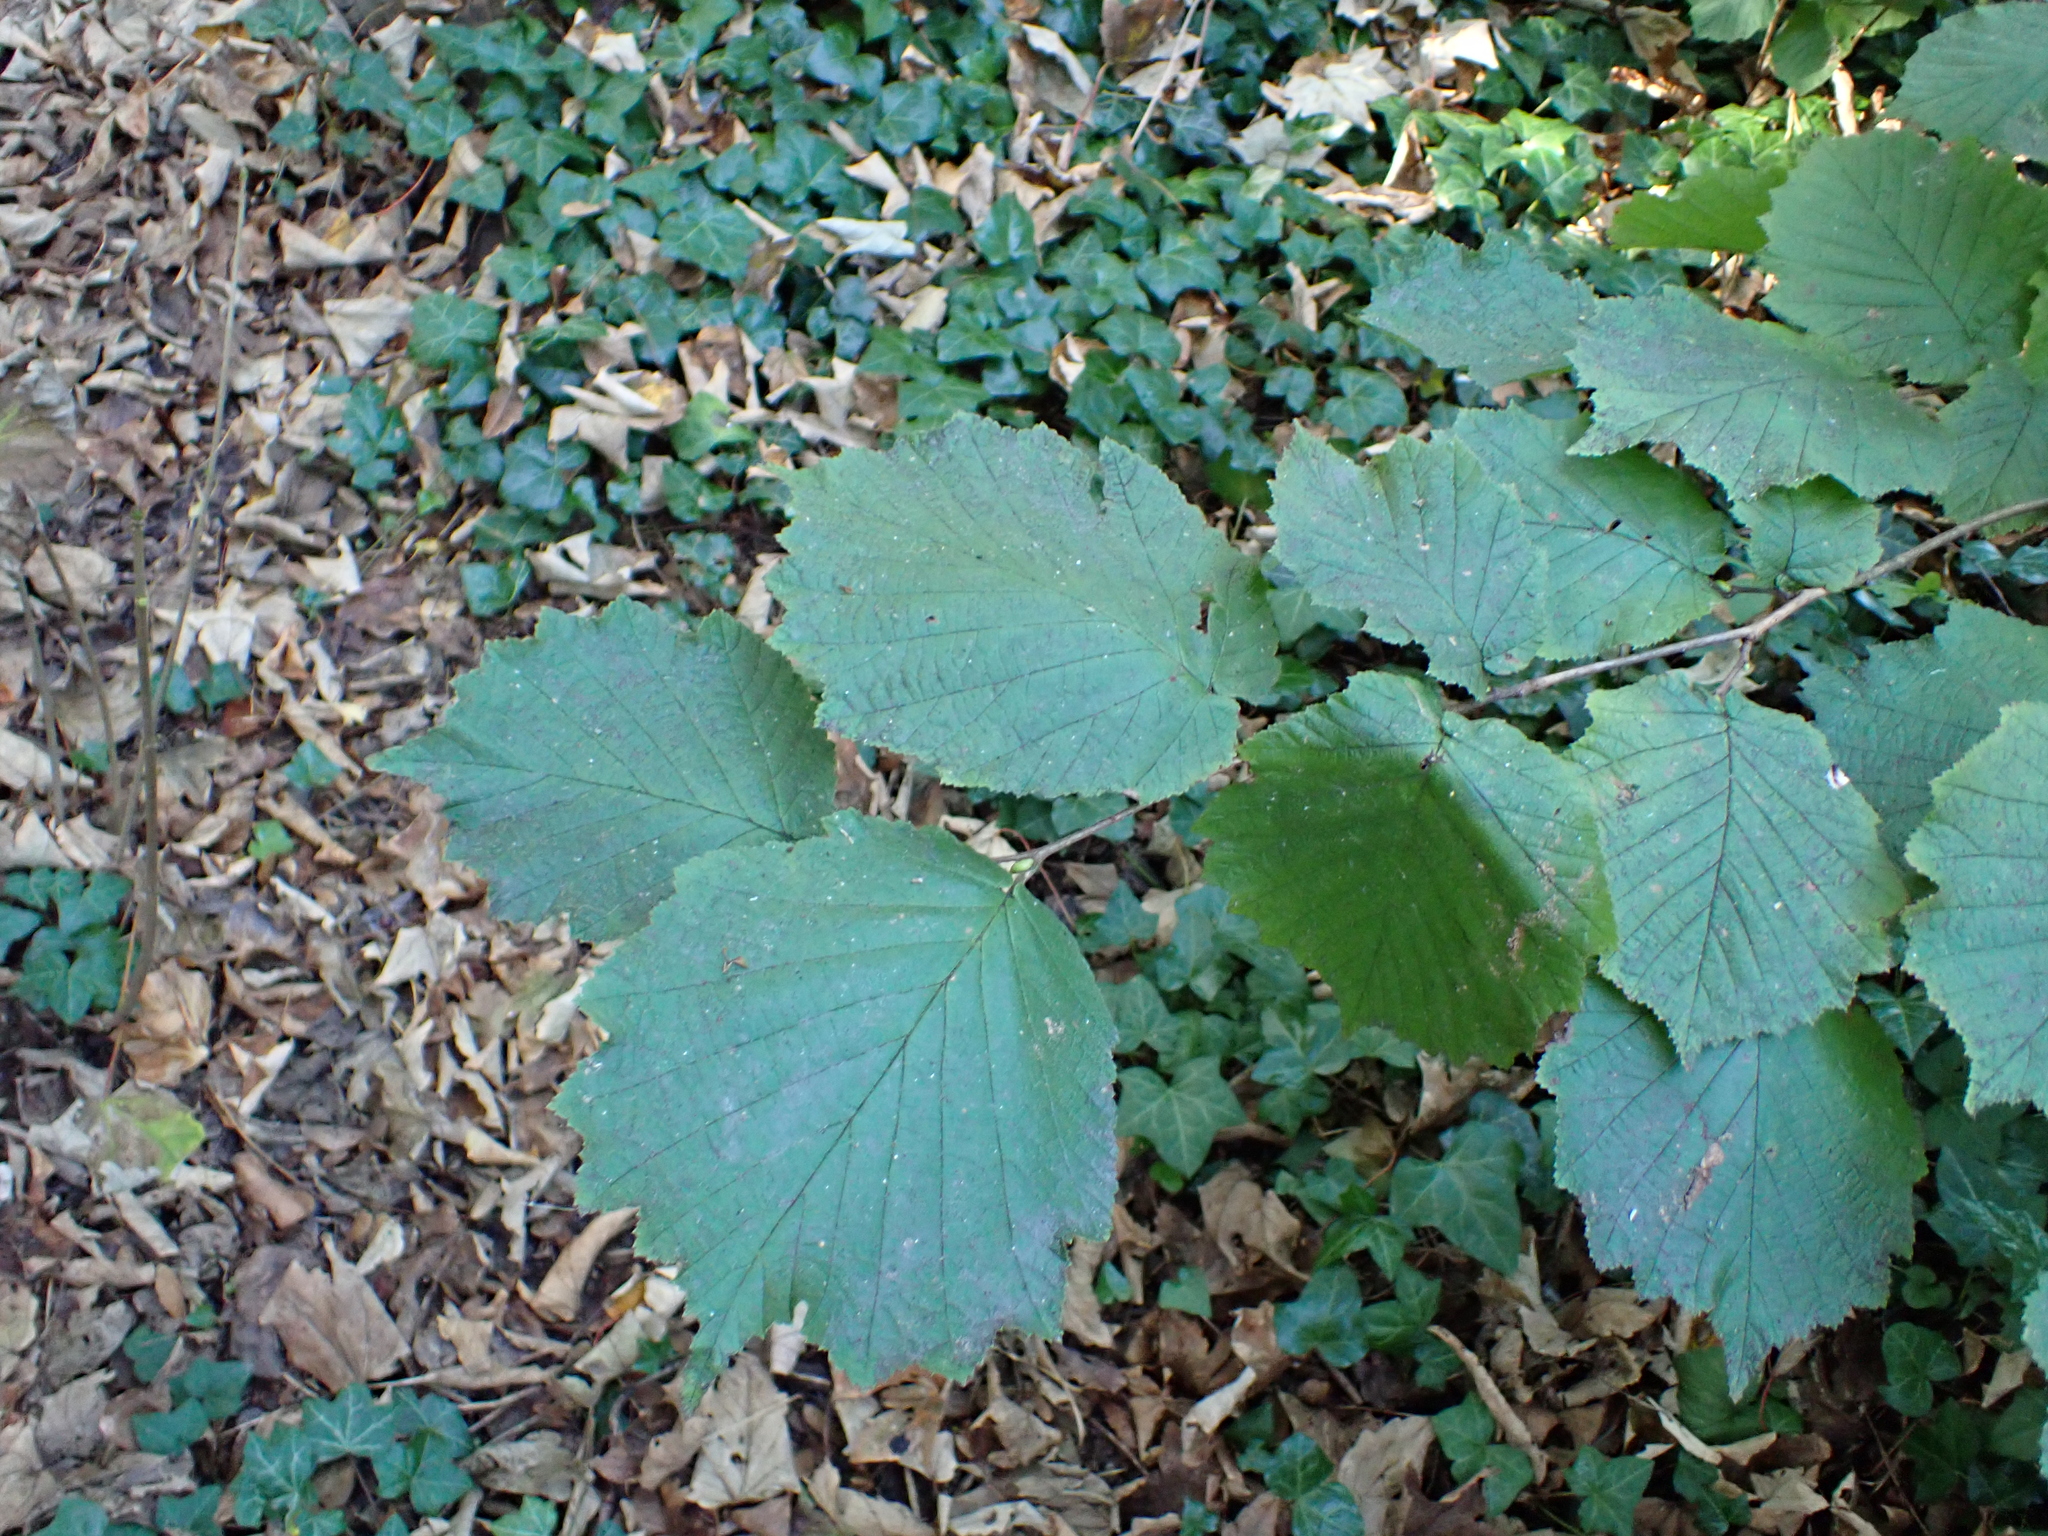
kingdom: Plantae
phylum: Tracheophyta
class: Magnoliopsida
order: Fagales
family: Betulaceae
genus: Corylus
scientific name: Corylus avellana
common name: European hazel
